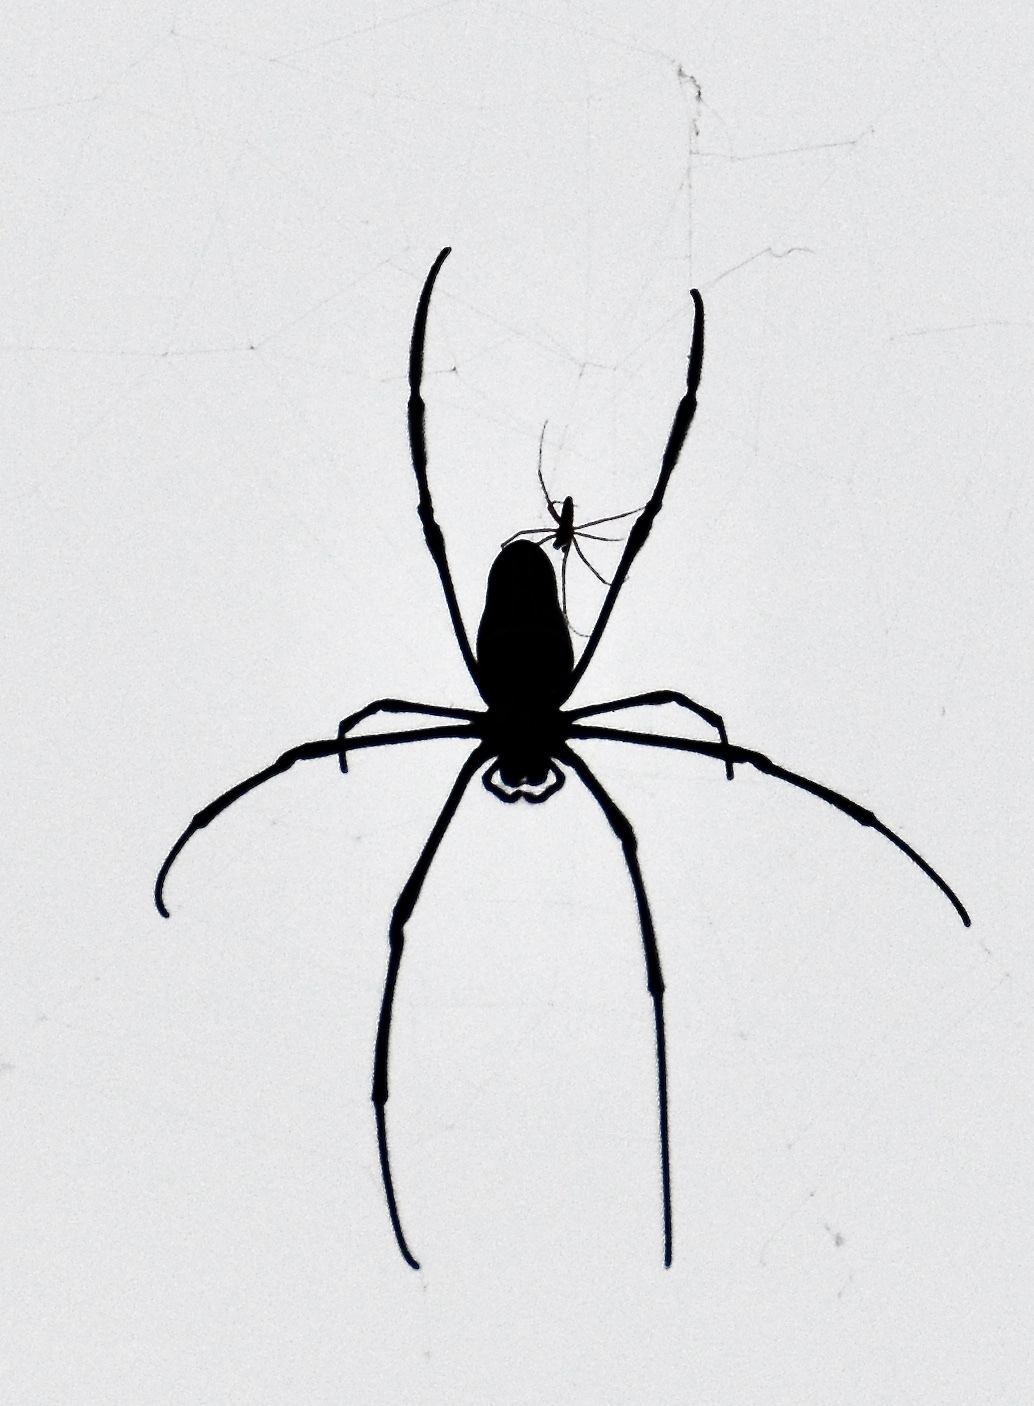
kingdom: Animalia
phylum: Arthropoda
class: Arachnida
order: Araneae
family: Araneidae
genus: Nephila
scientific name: Nephila pilipes
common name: Giant golden orb weaver
